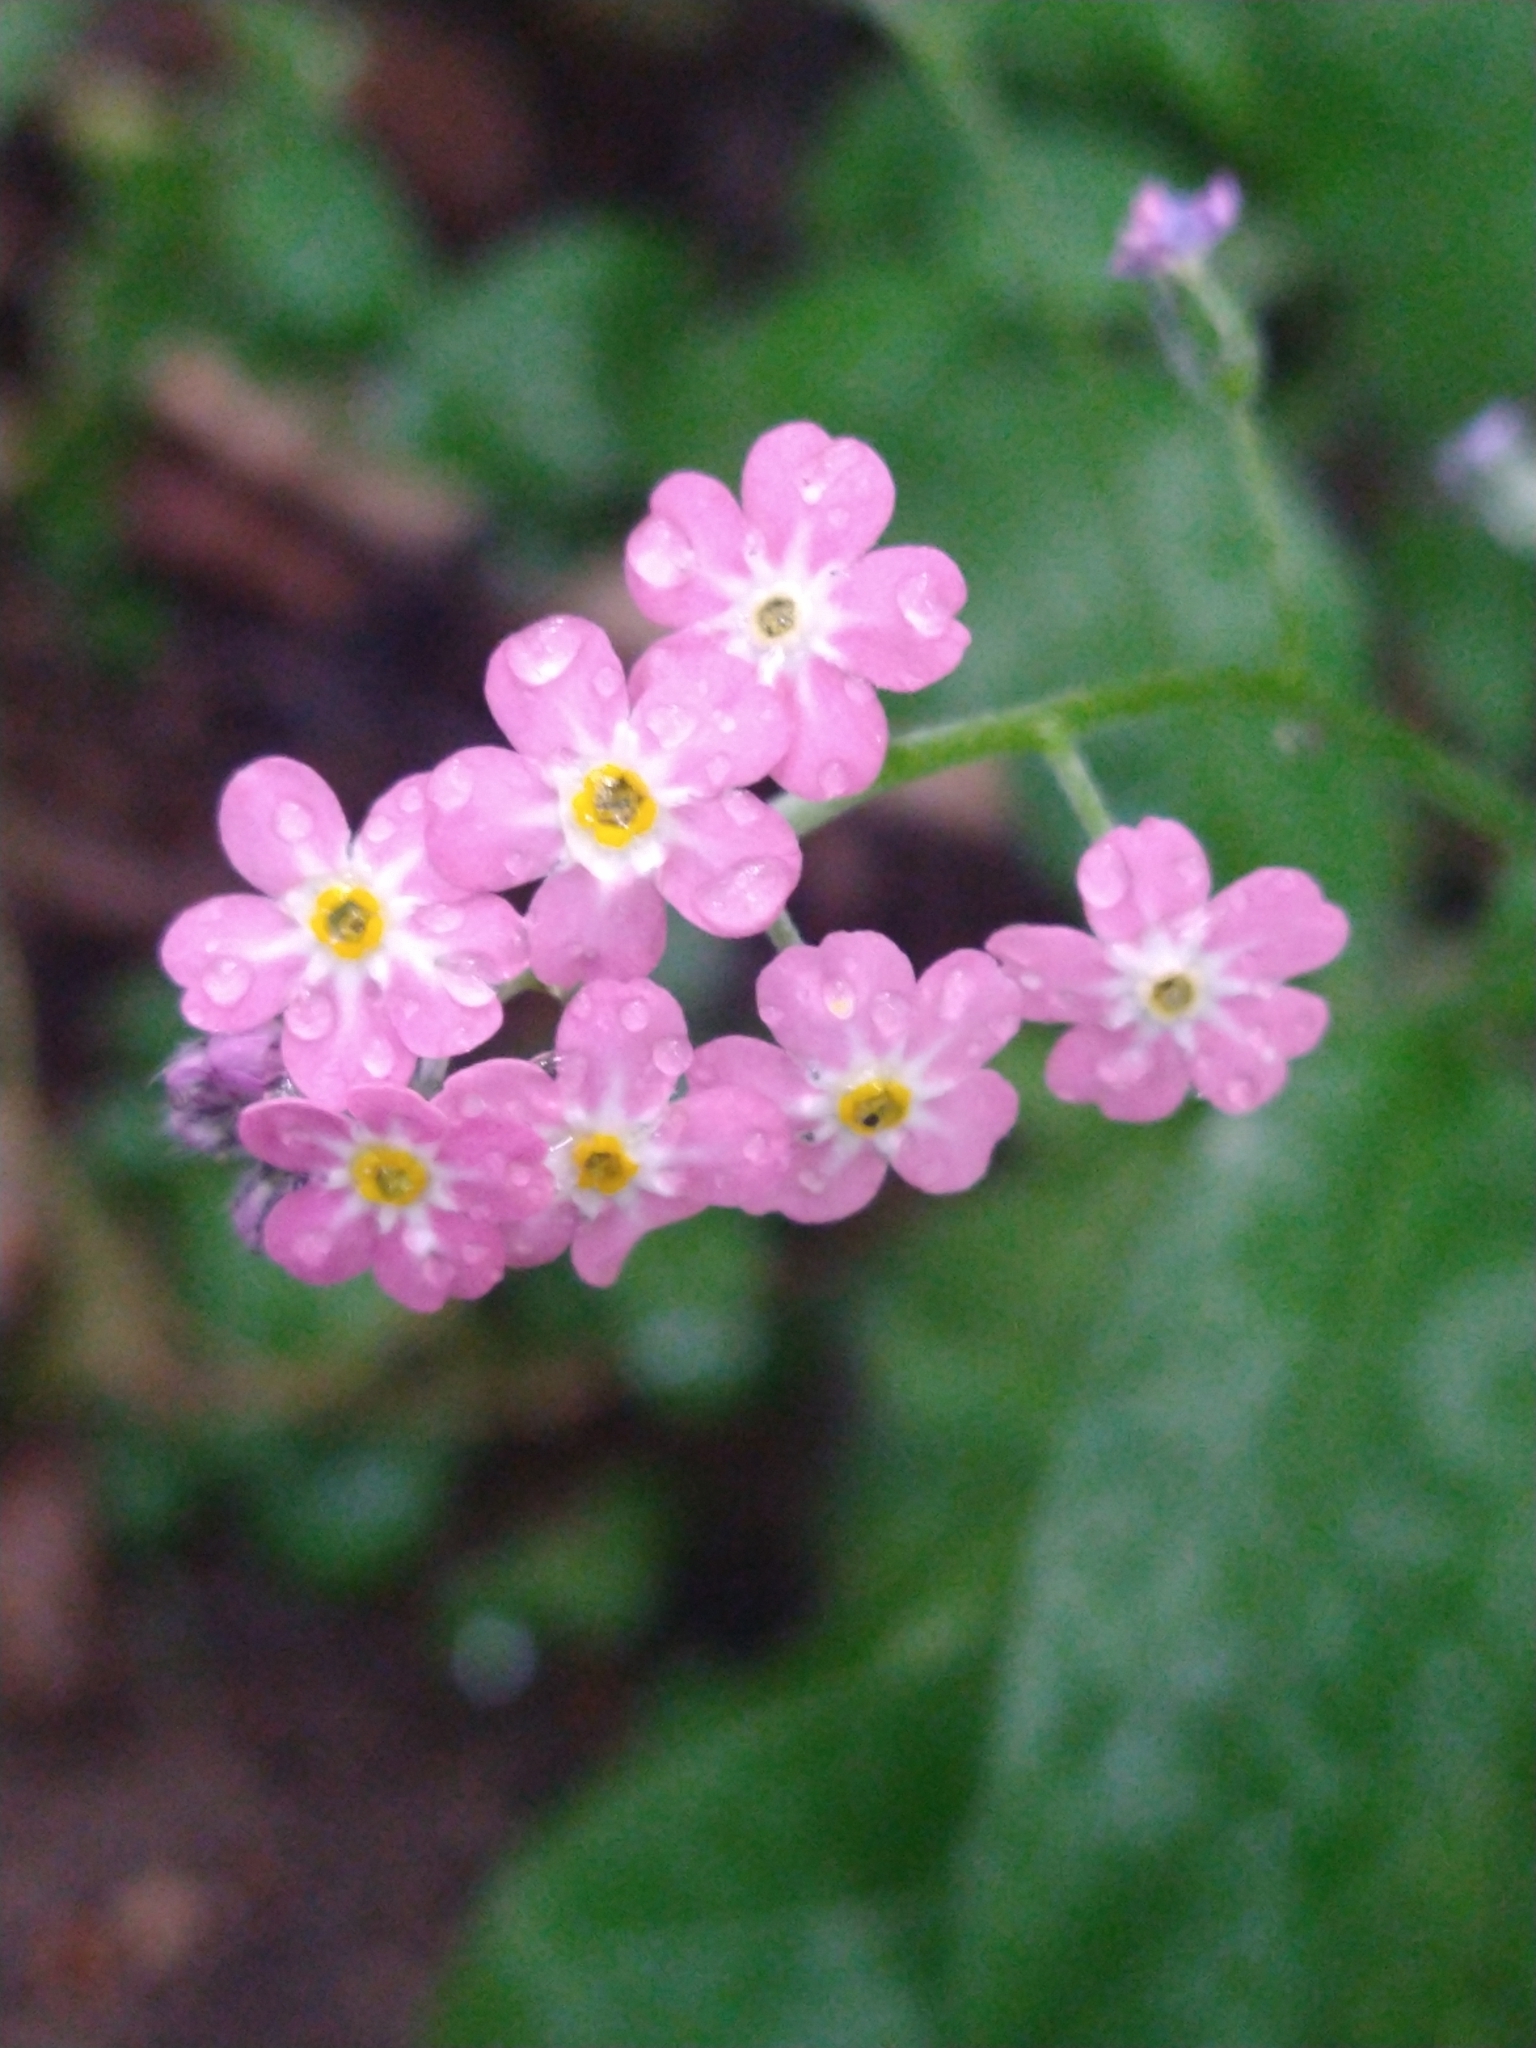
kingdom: Plantae
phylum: Tracheophyta
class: Magnoliopsida
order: Boraginales
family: Boraginaceae
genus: Myosotis
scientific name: Myosotis sylvatica
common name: Wood forget-me-not
